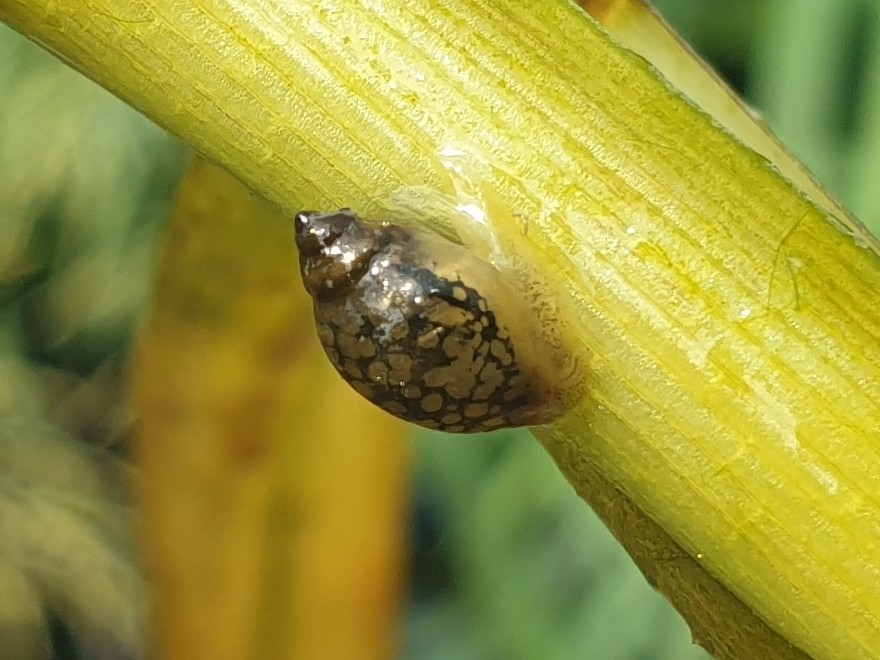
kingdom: Animalia
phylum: Mollusca
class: Gastropoda
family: Physidae
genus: Physella
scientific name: Physella acuta
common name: European physa
